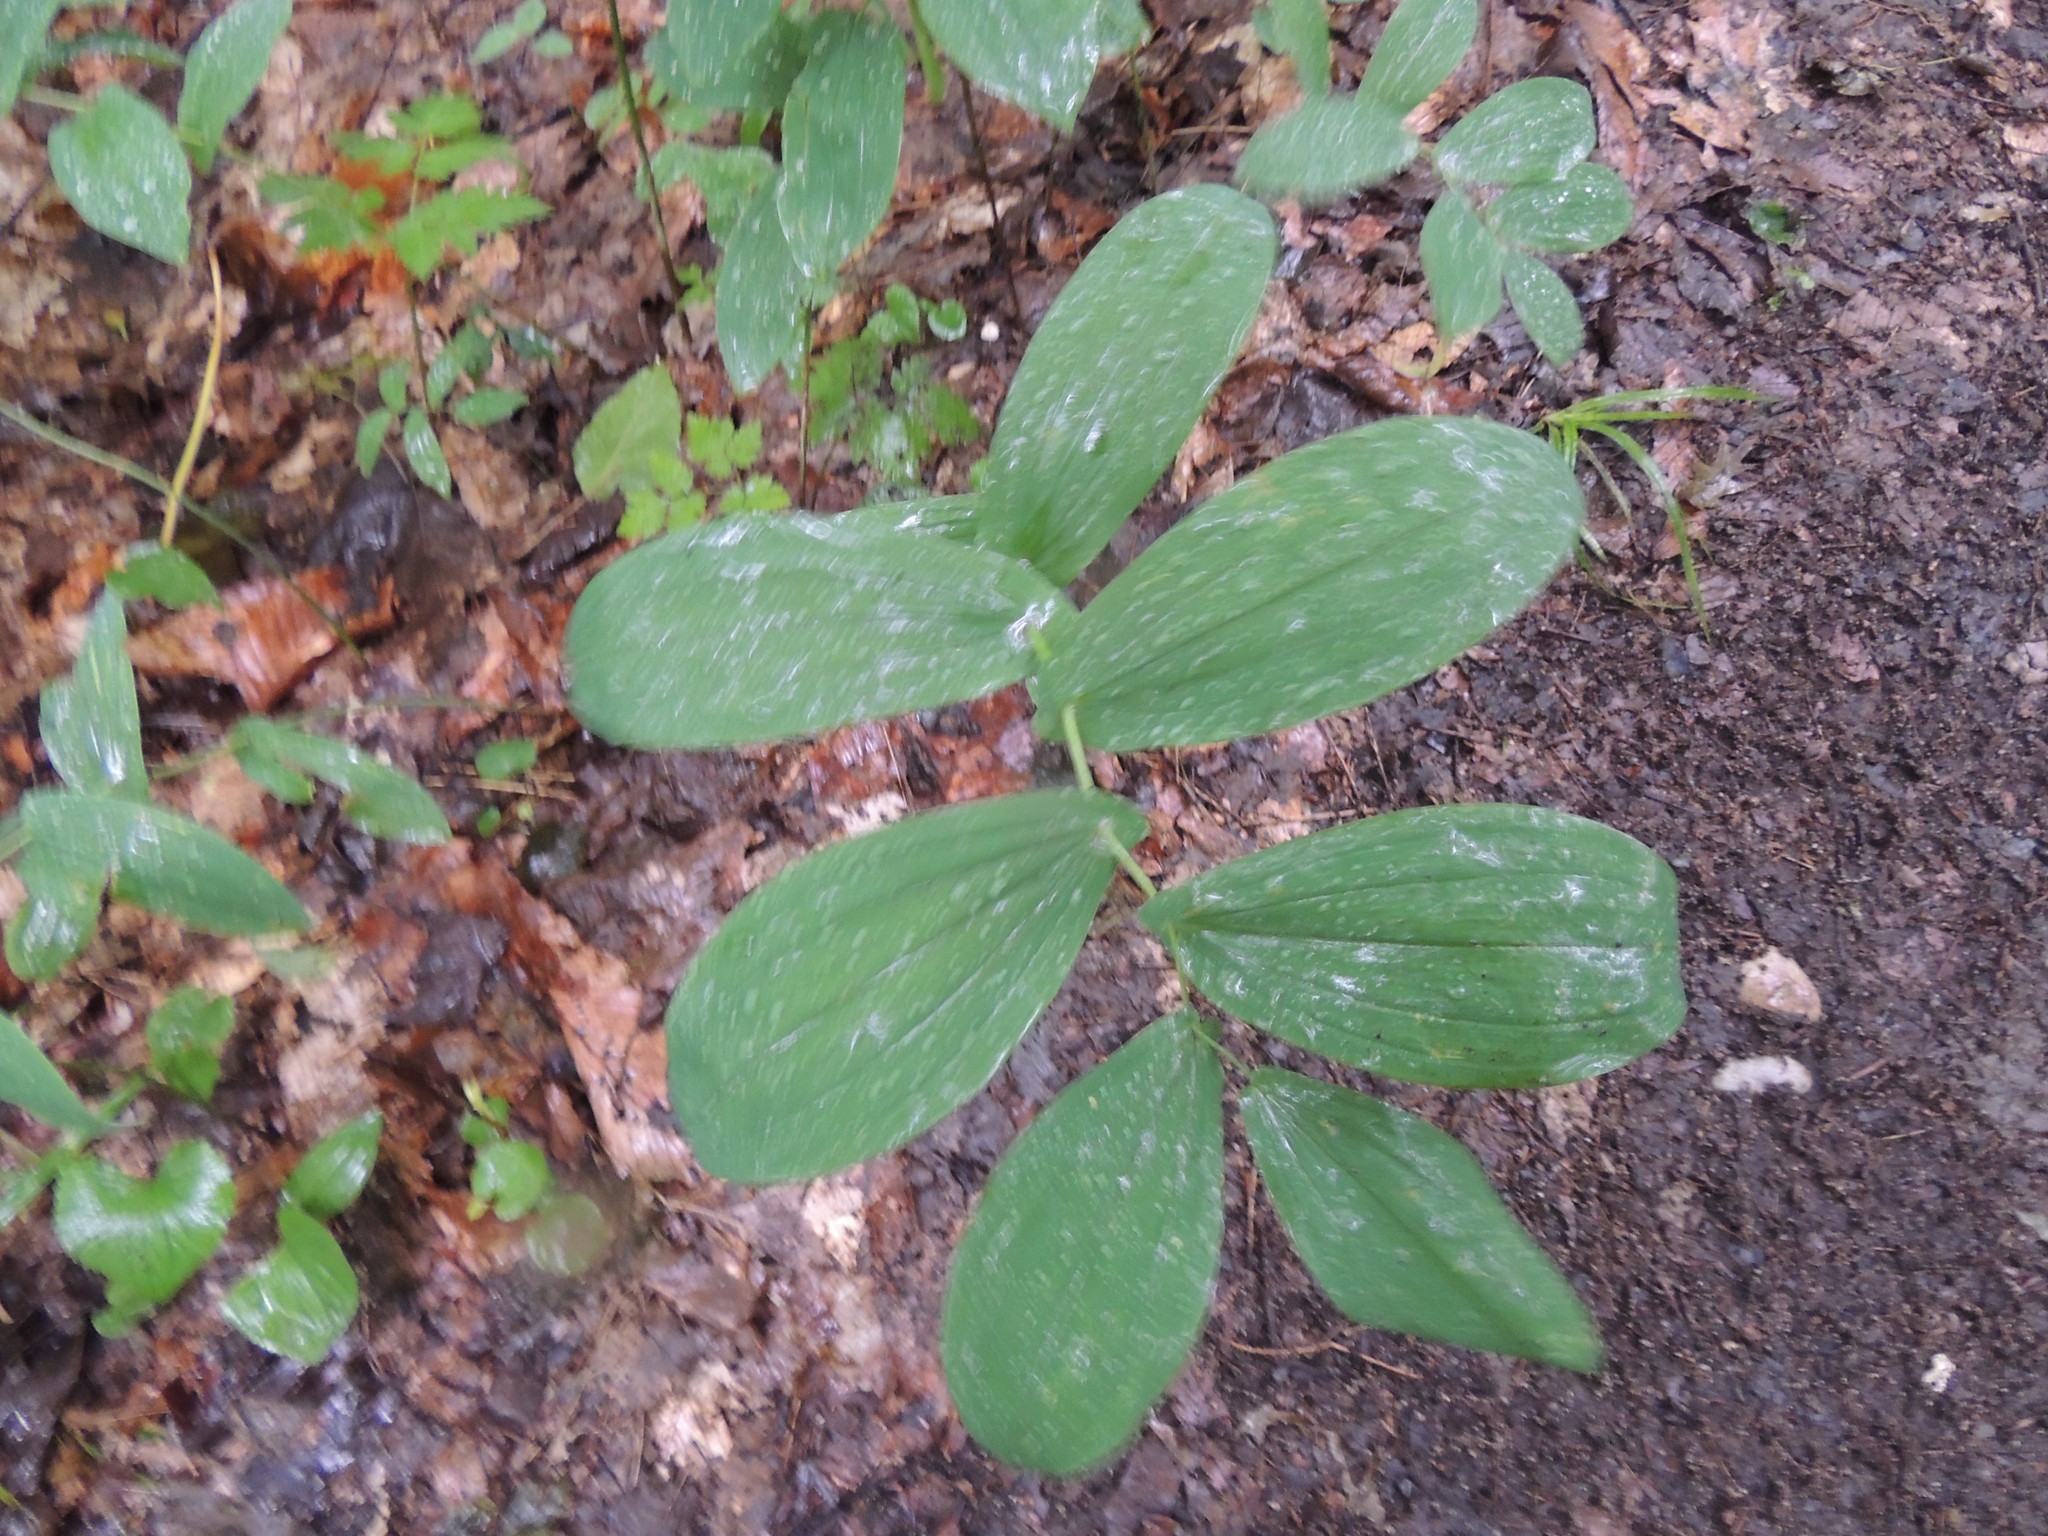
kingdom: Plantae
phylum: Tracheophyta
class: Liliopsida
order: Liliales
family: Colchicaceae
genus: Uvularia
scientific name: Uvularia grandiflora
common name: Bellwort
